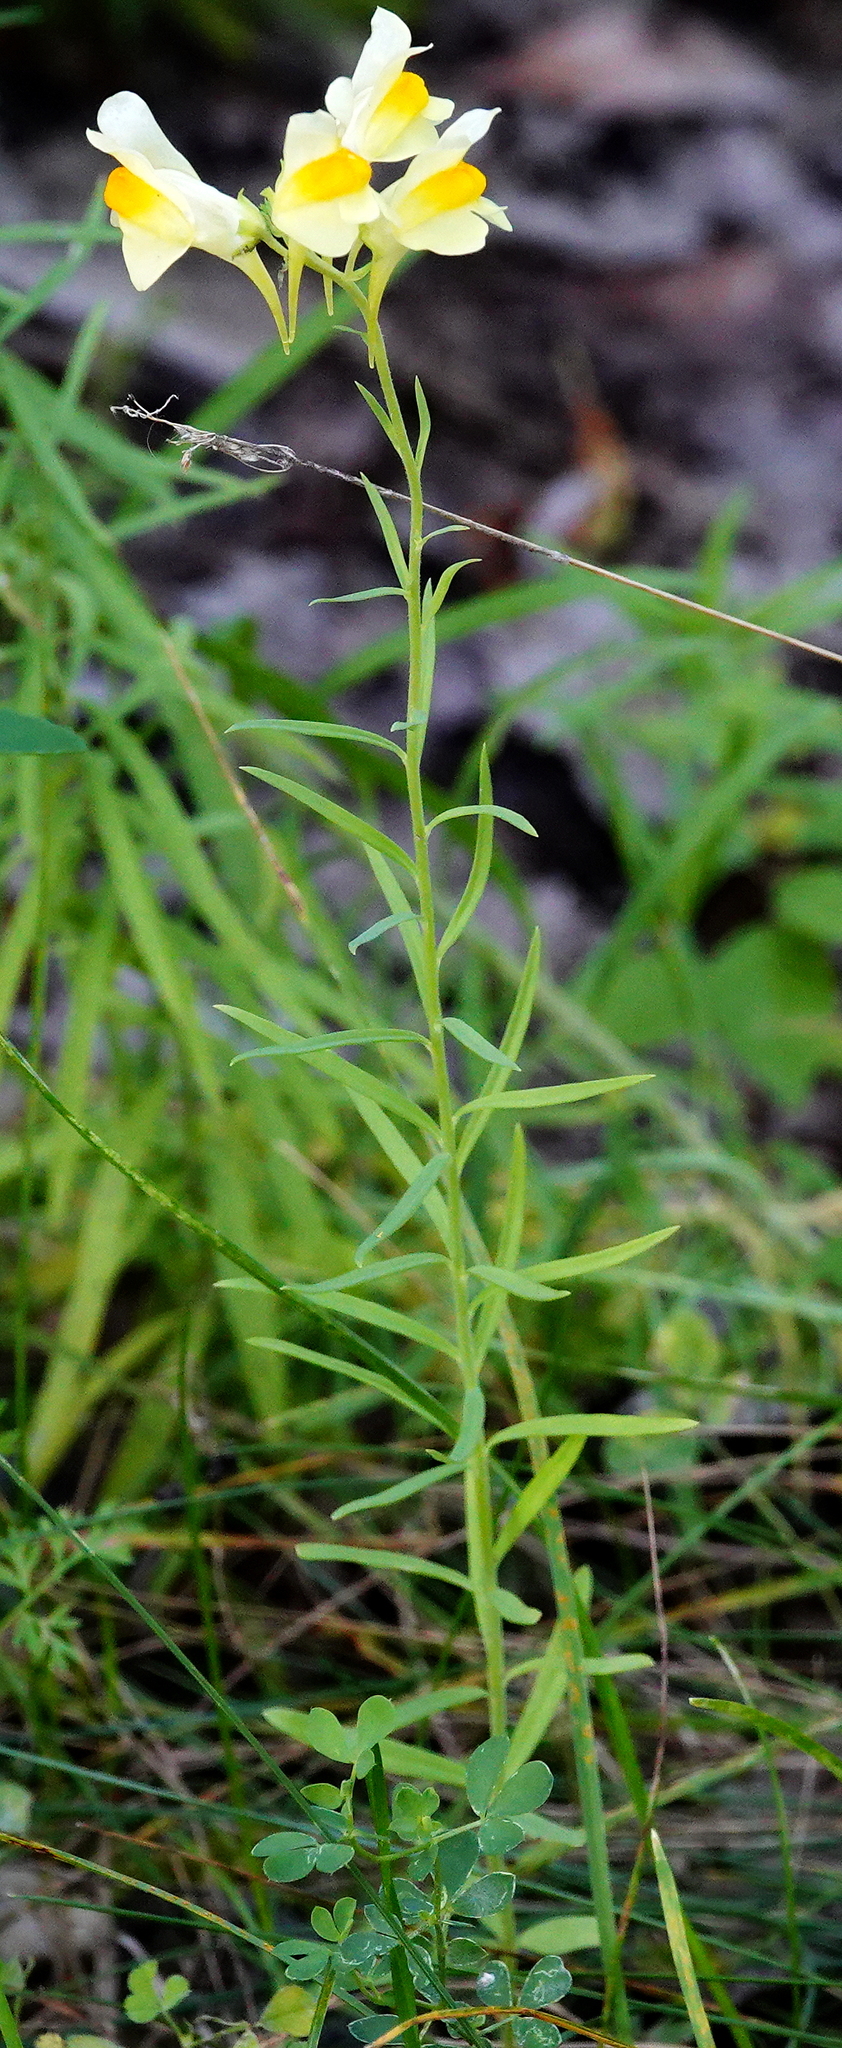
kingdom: Plantae
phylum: Tracheophyta
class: Magnoliopsida
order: Lamiales
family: Plantaginaceae
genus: Linaria
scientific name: Linaria vulgaris
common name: Butter and eggs
